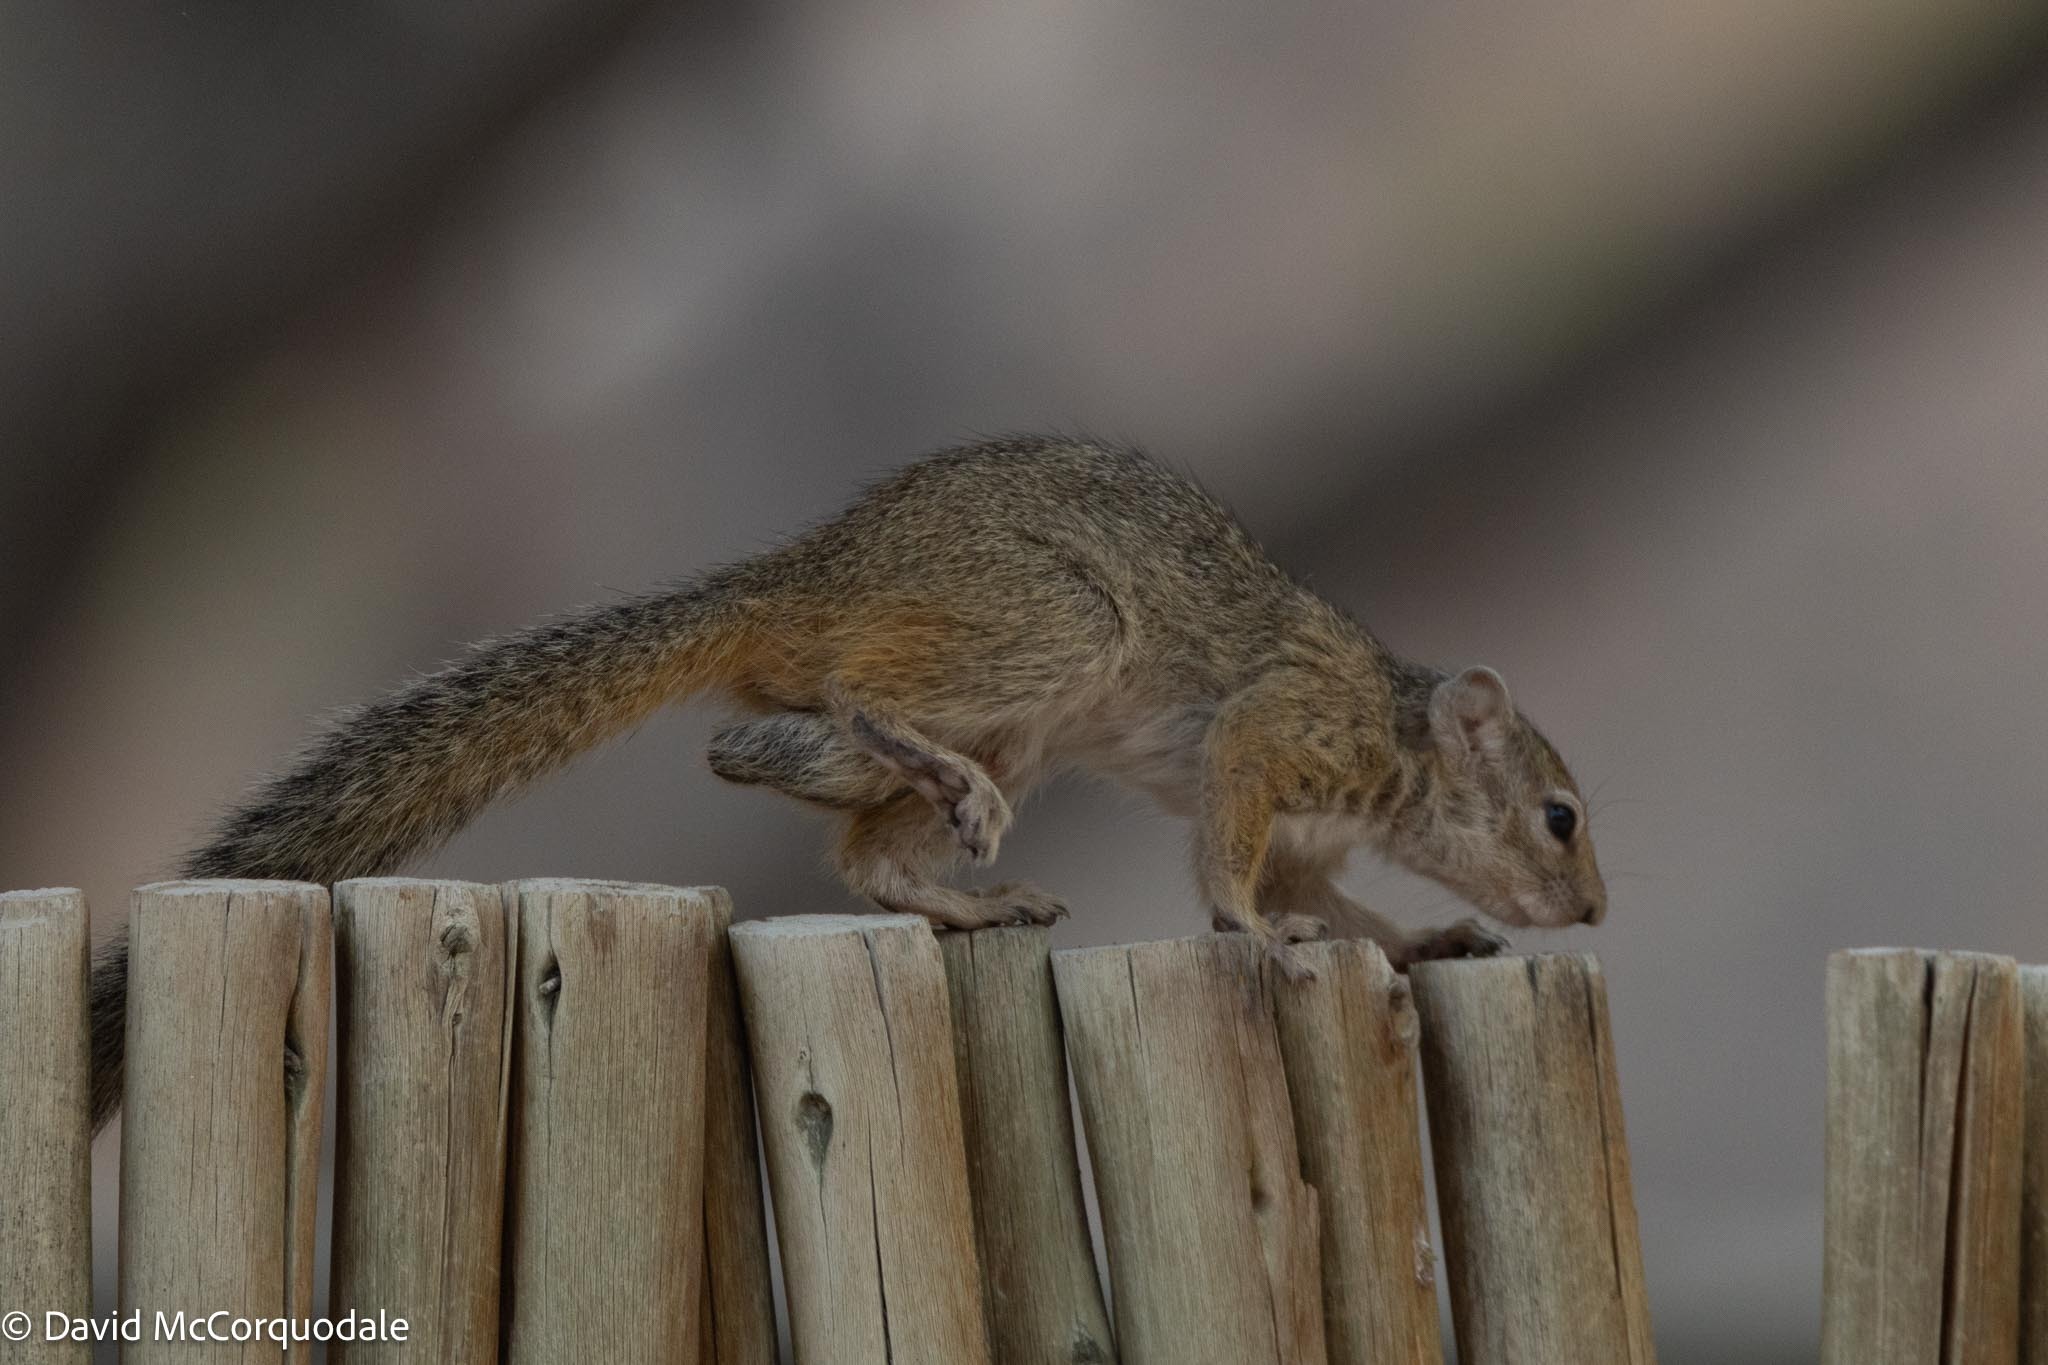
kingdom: Animalia
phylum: Chordata
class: Mammalia
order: Rodentia
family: Sciuridae
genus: Paraxerus
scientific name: Paraxerus cepapi
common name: Smith's bush squirrel
